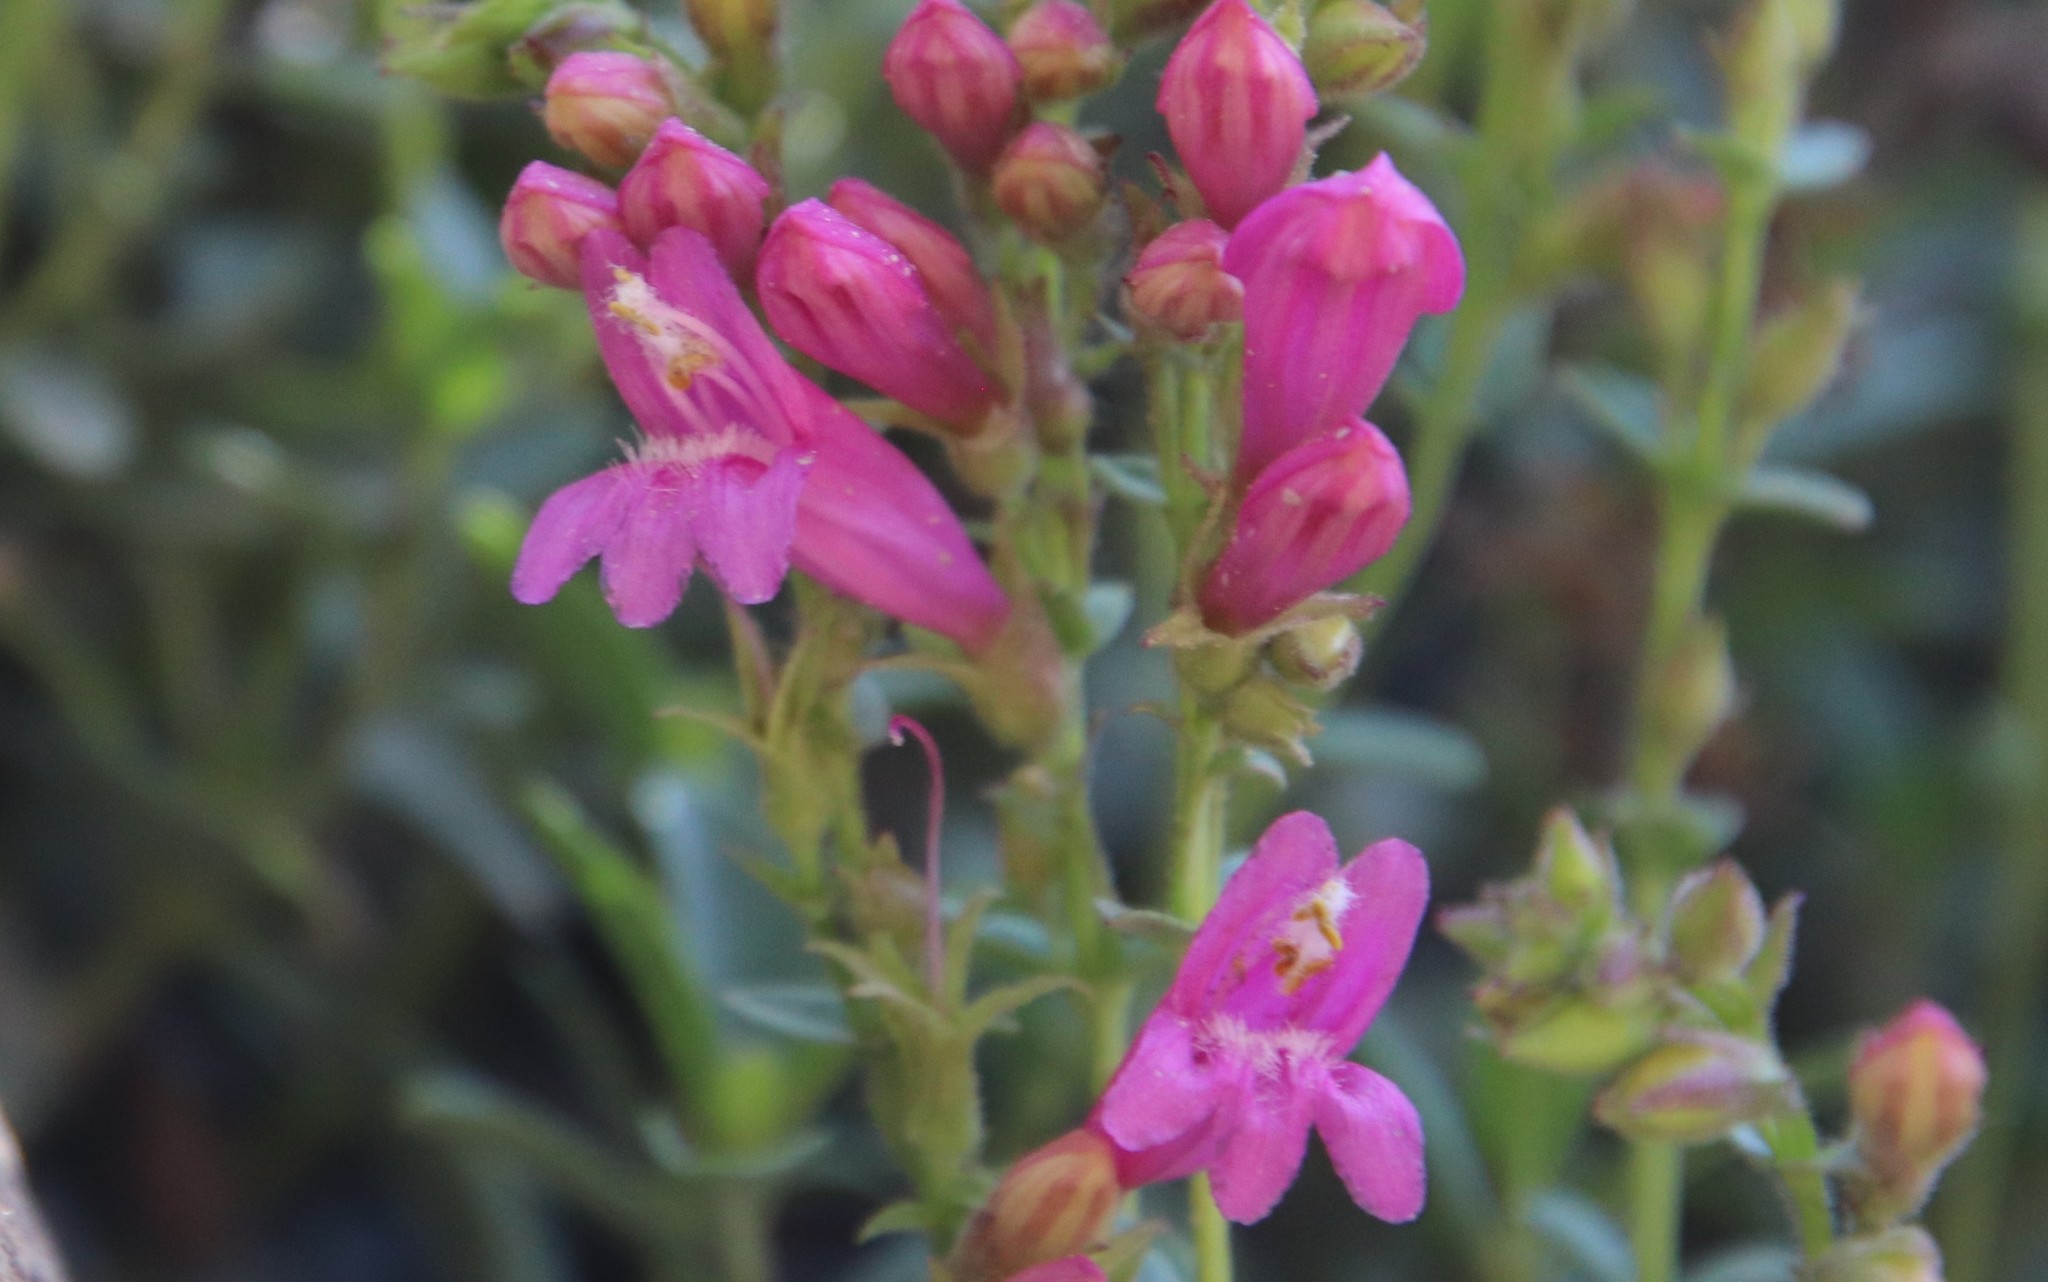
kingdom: Plantae
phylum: Tracheophyta
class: Magnoliopsida
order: Lamiales
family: Plantaginaceae
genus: Penstemon
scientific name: Penstemon newberryi
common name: Mountain-pride
